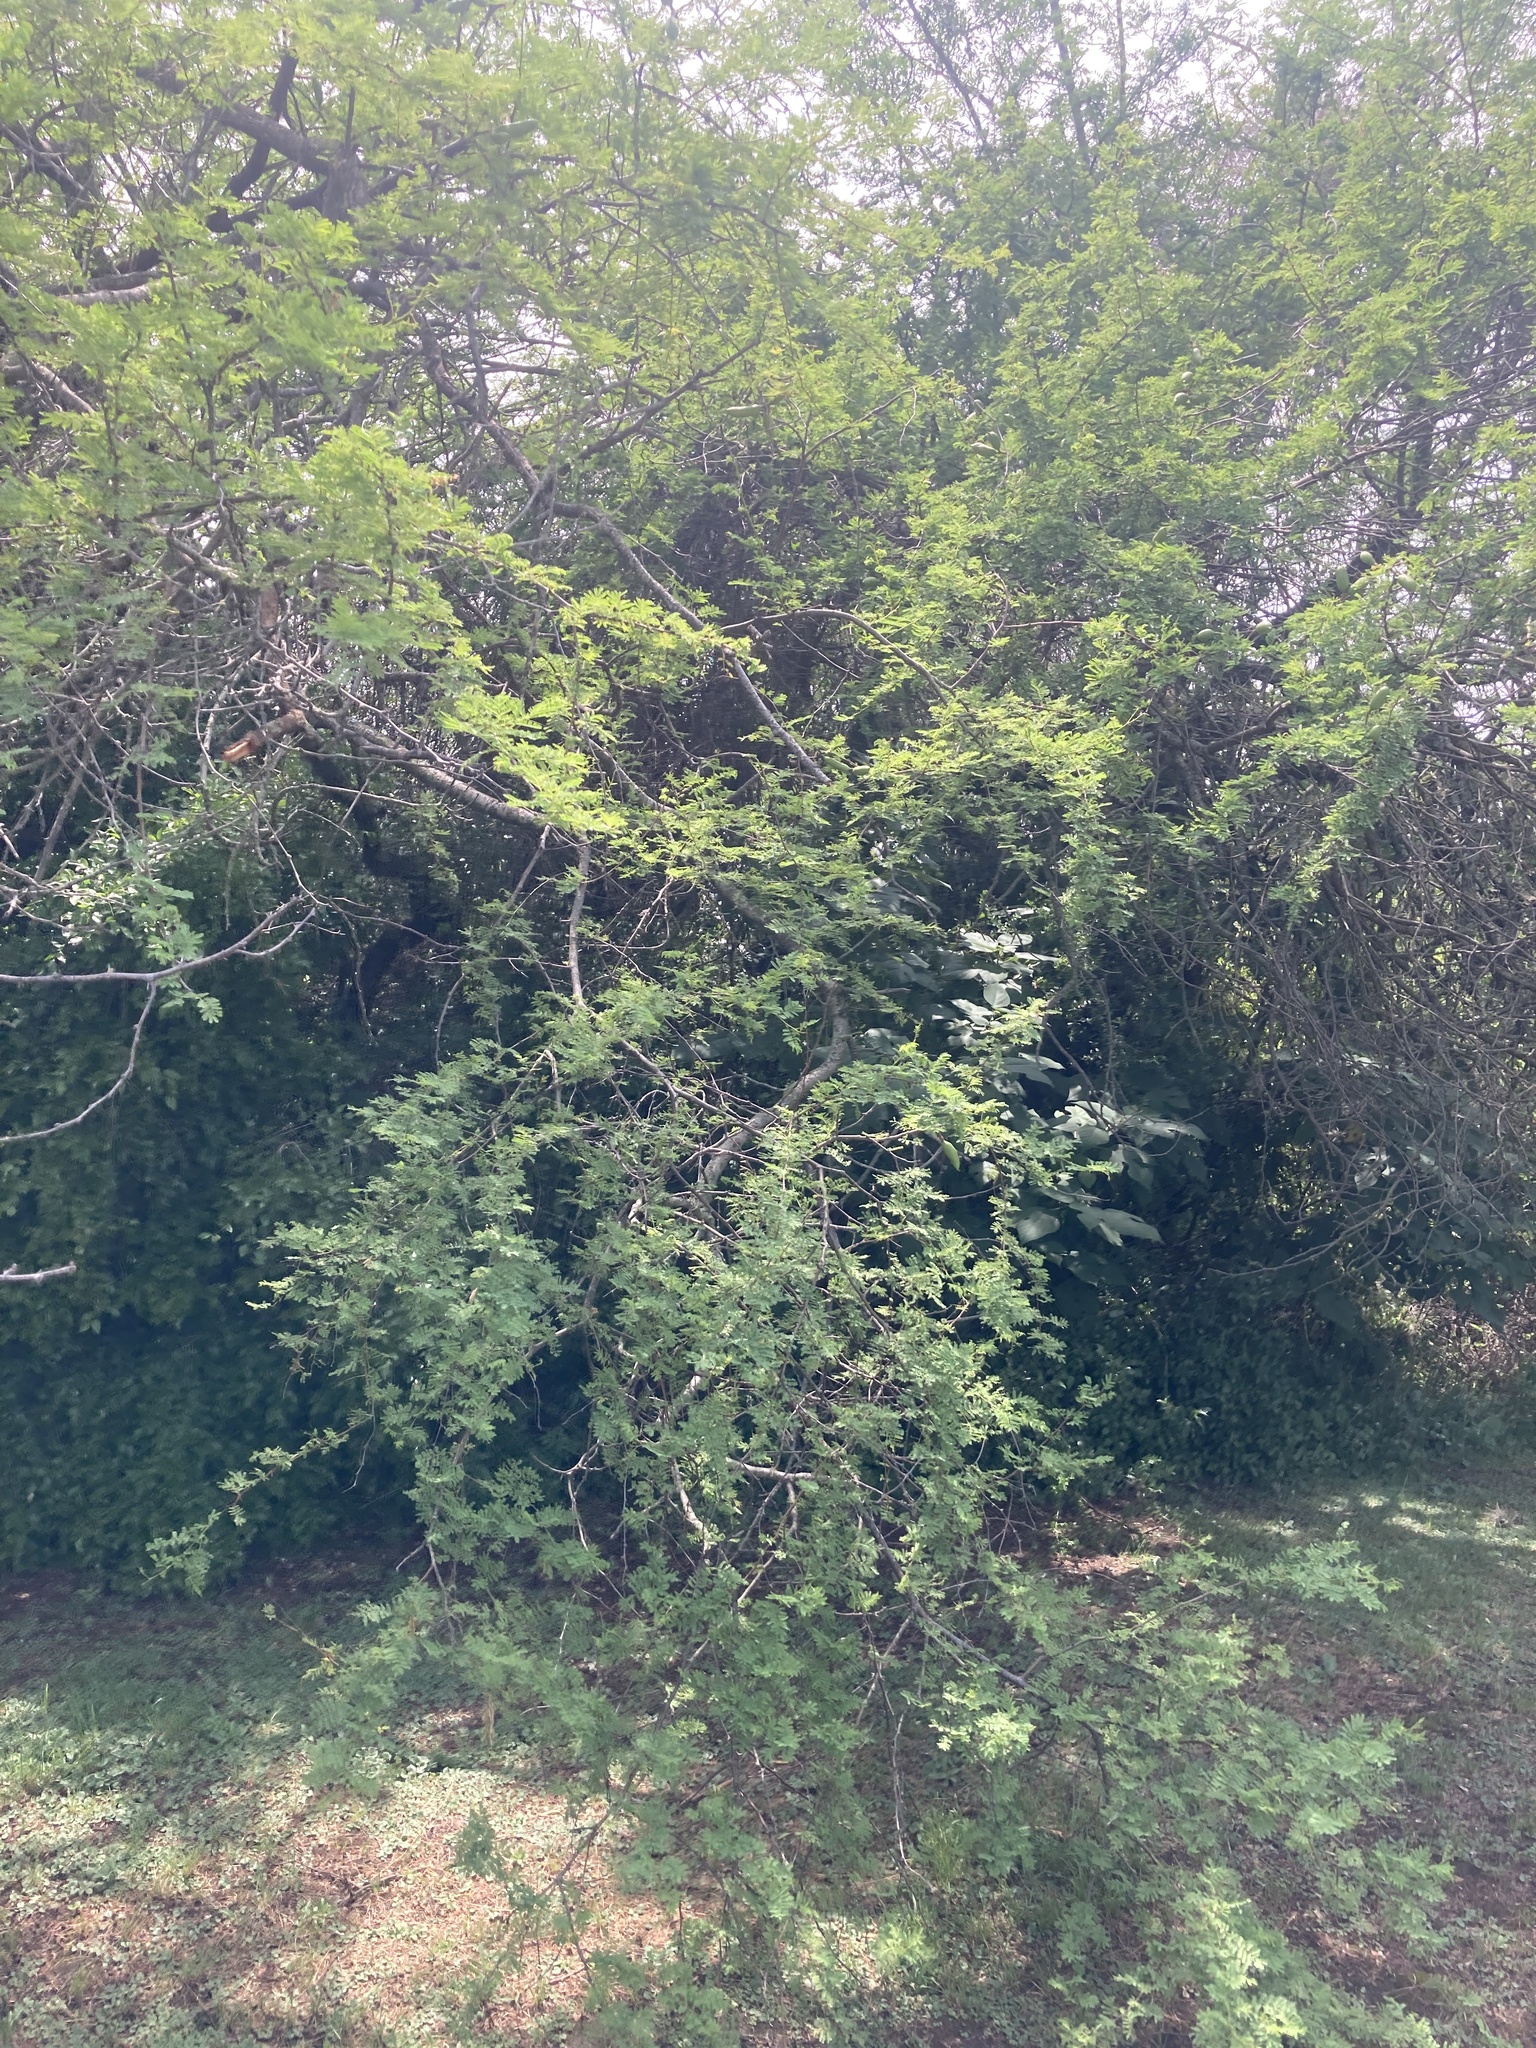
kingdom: Plantae
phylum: Tracheophyta
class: Magnoliopsida
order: Fabales
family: Fabaceae
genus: Vachellia
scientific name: Vachellia caven
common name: Roman cassie
